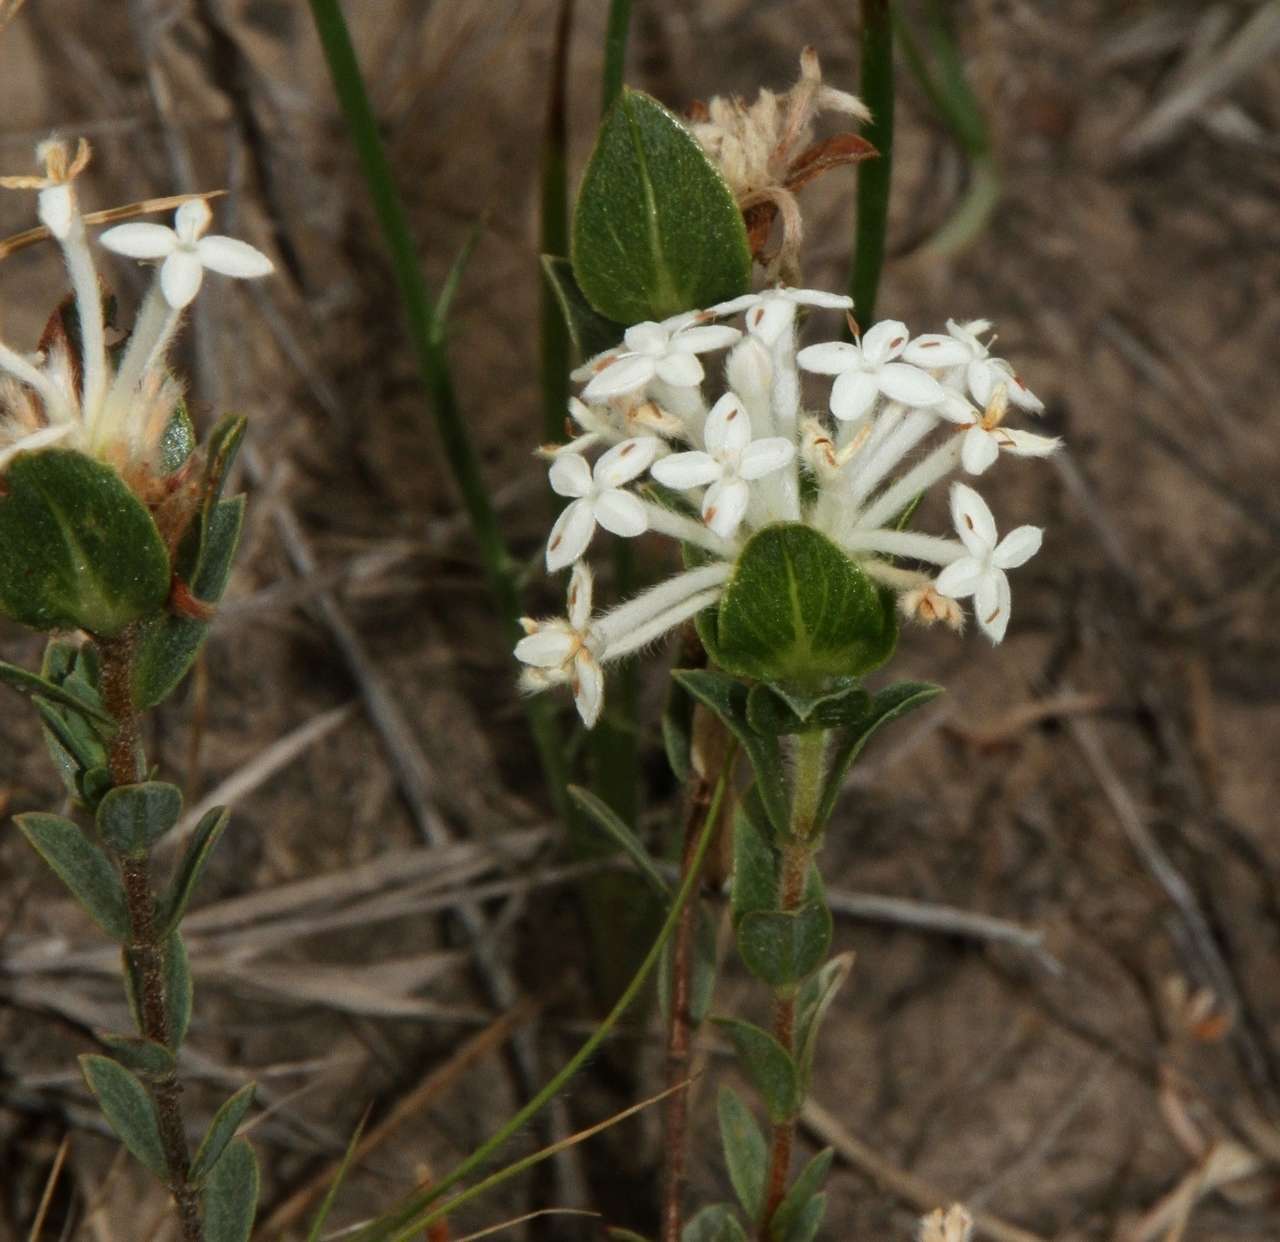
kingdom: Plantae
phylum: Tracheophyta
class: Magnoliopsida
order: Malvales
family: Thymelaeaceae
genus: Pimelea
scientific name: Pimelea humilis
